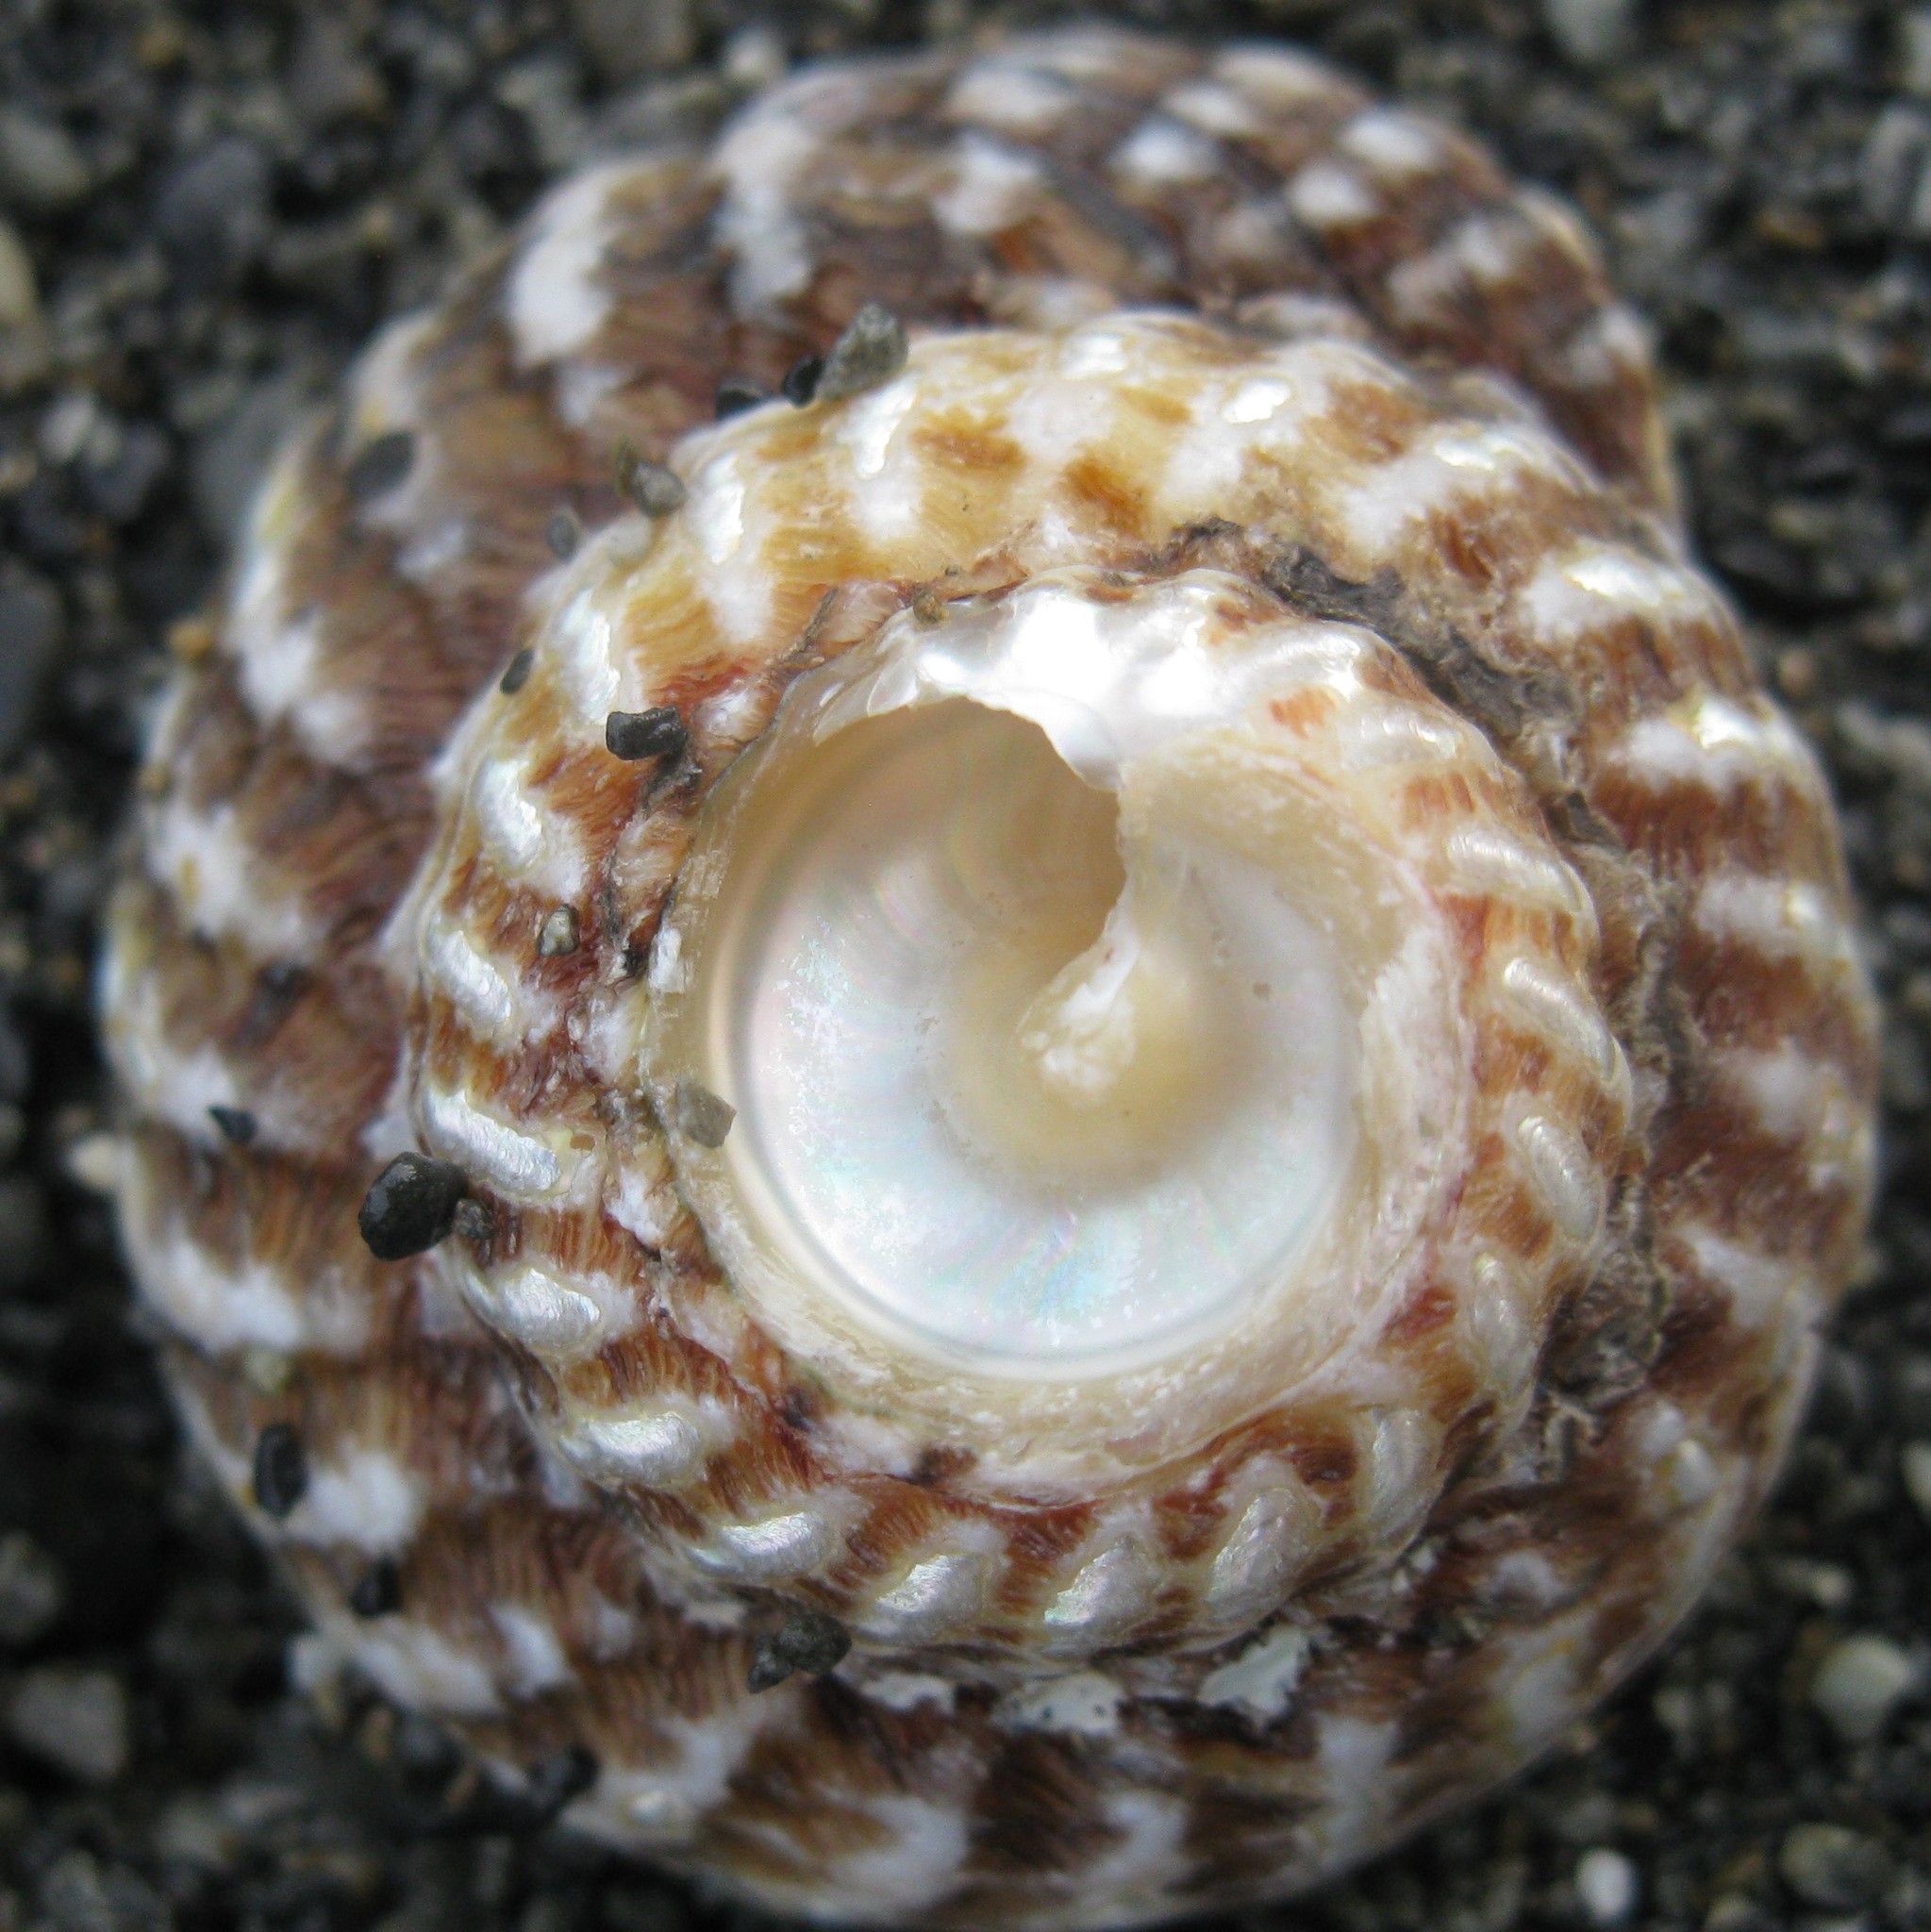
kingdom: Animalia
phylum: Mollusca
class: Gastropoda
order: Trochida
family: Turbinidae
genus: Cookia
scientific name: Cookia sulcata
